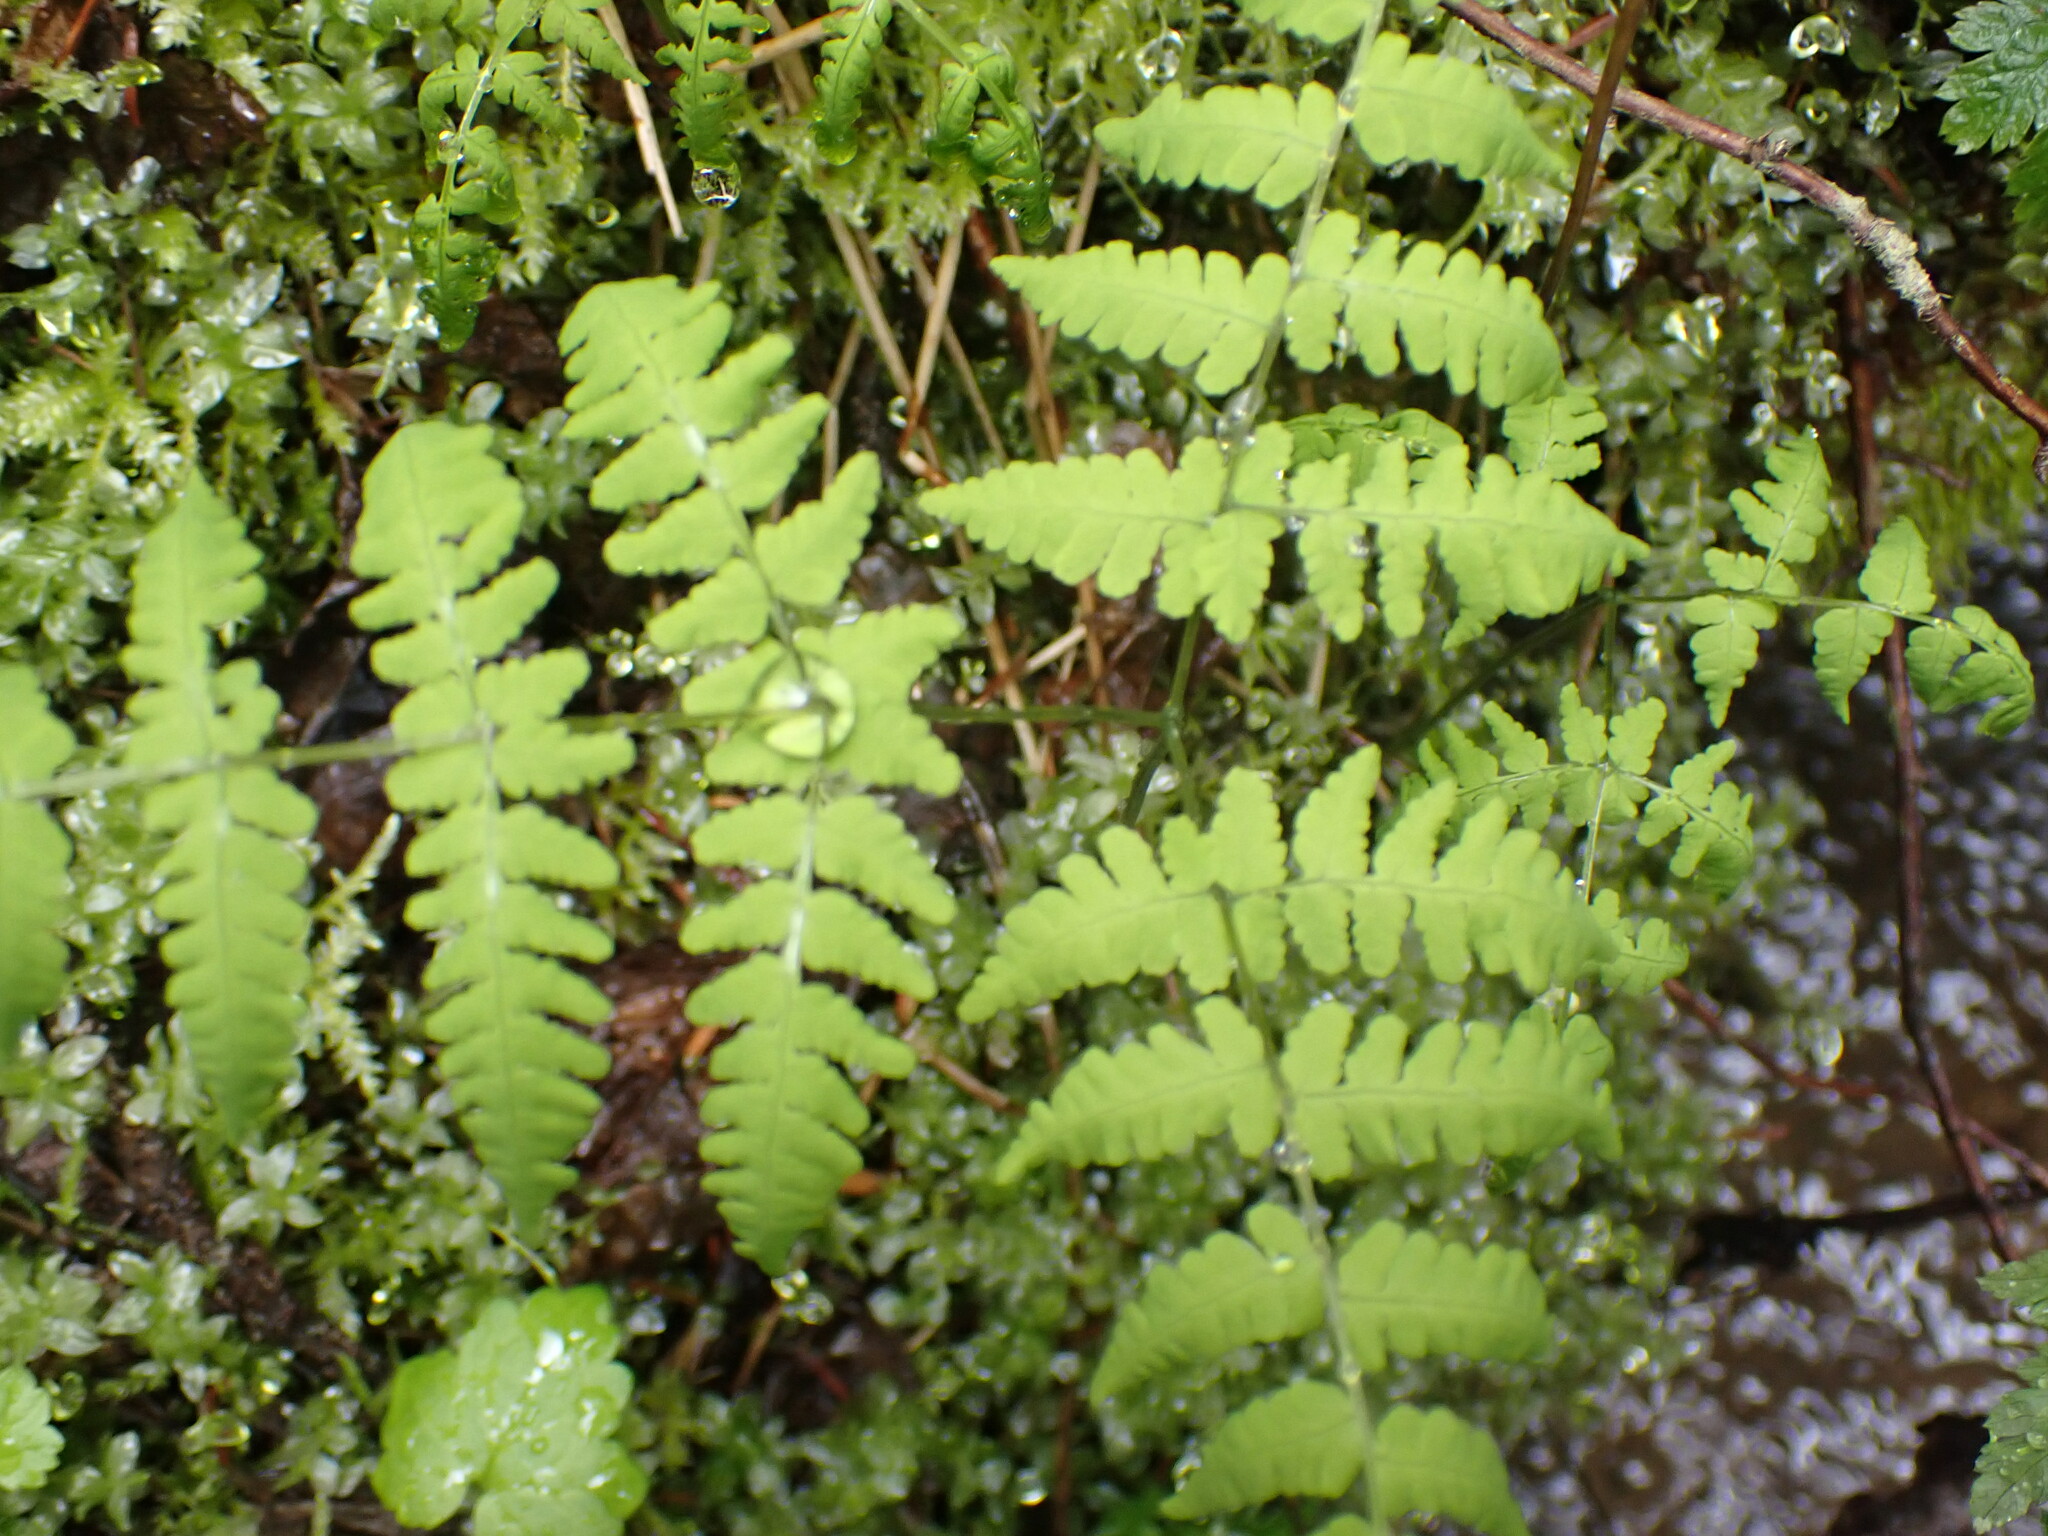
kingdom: Plantae
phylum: Tracheophyta
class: Polypodiopsida
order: Polypodiales
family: Cystopteridaceae
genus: Gymnocarpium
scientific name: Gymnocarpium disjunctum
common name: Western oak fern
